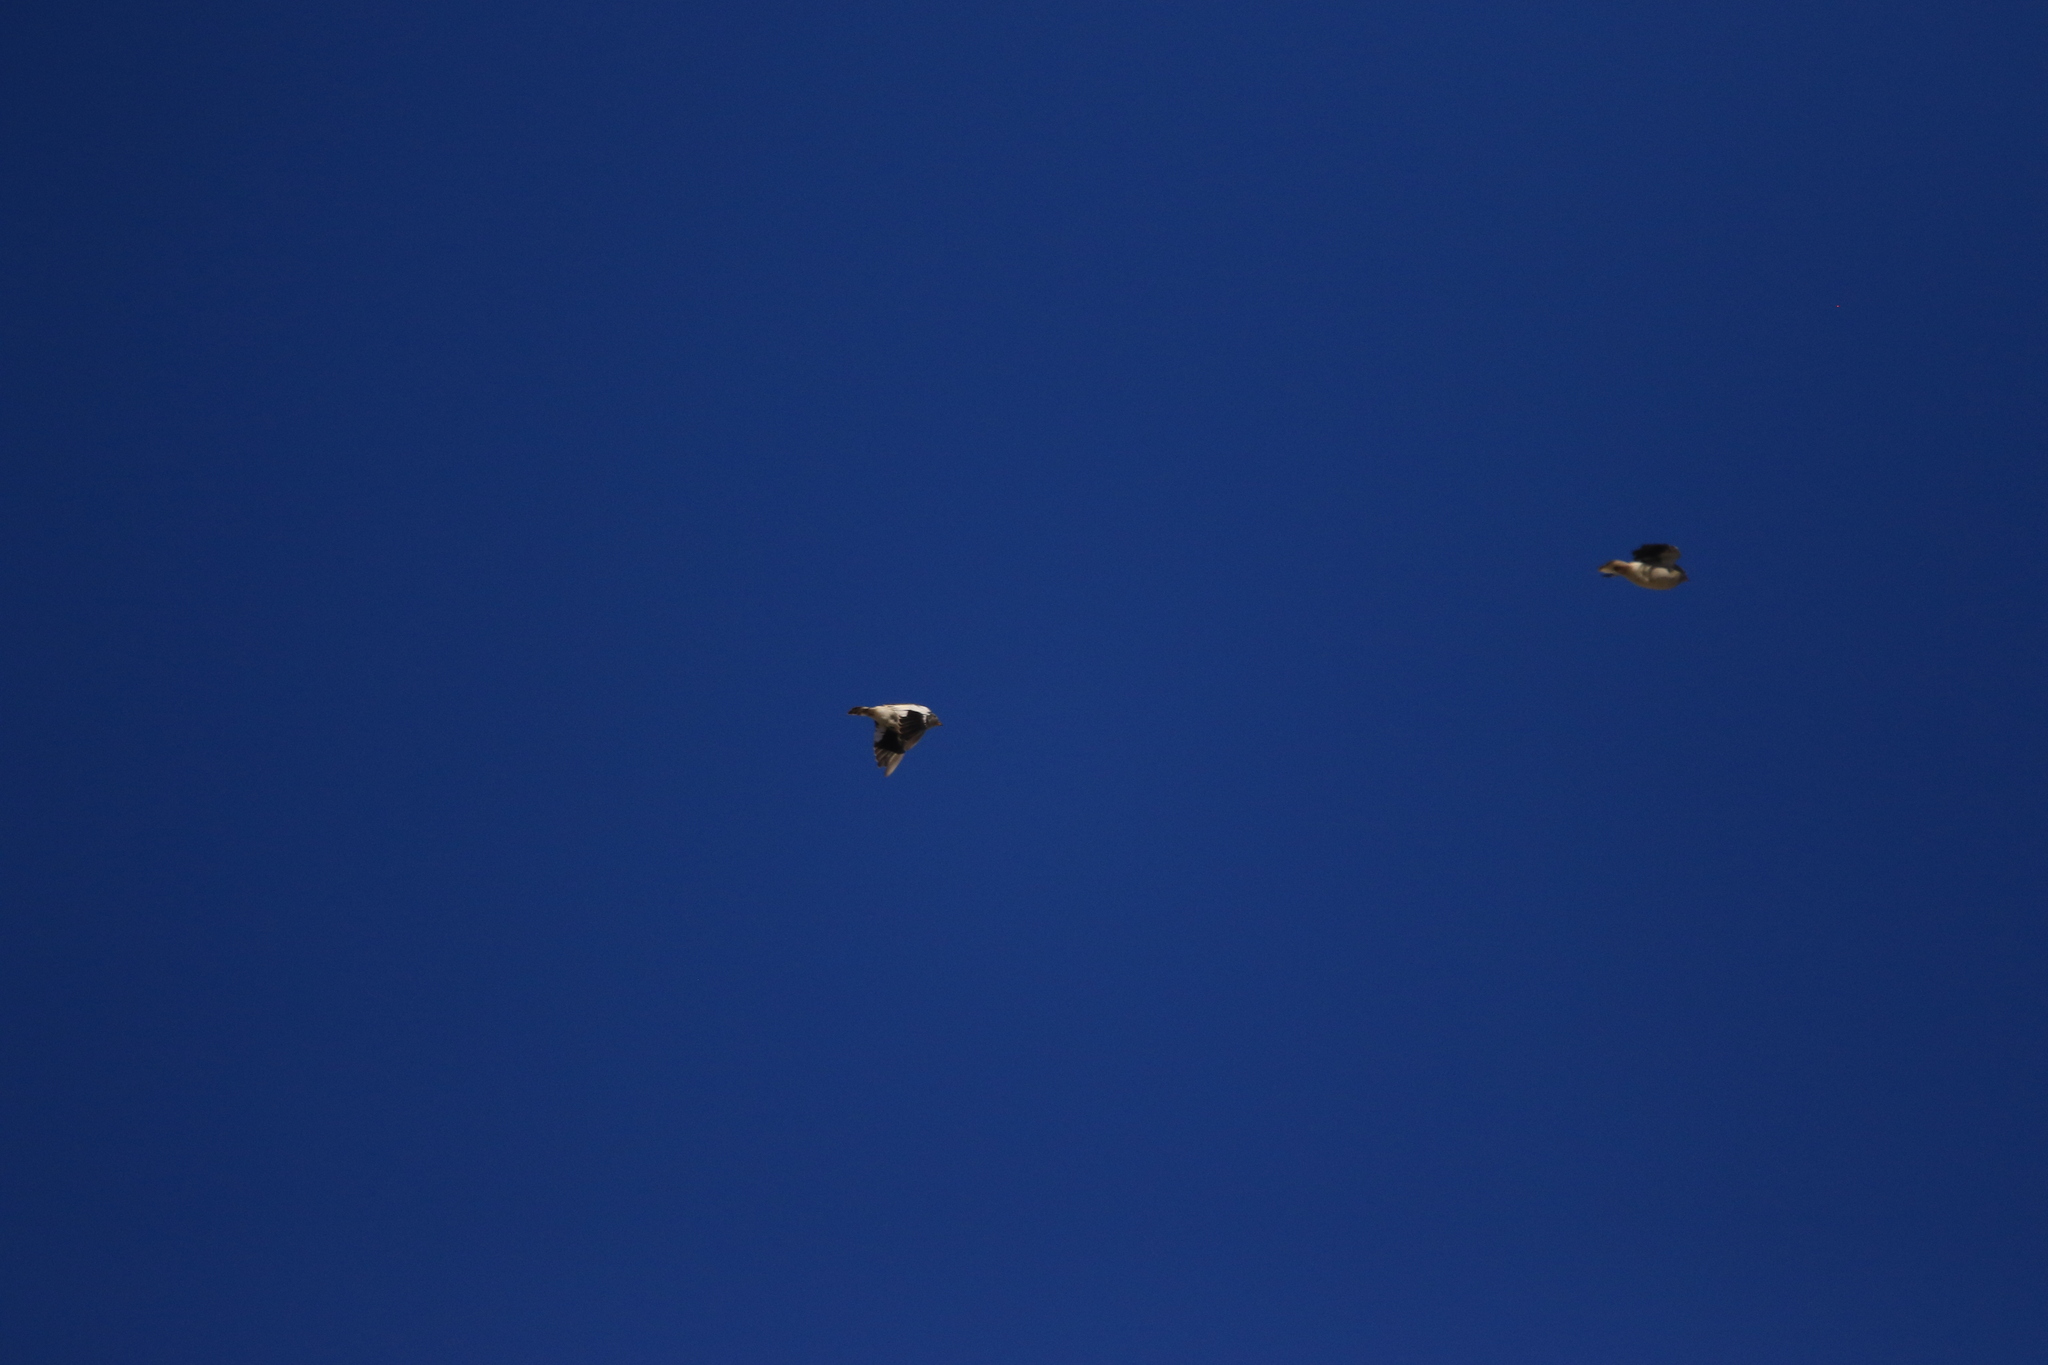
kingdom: Animalia
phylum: Chordata
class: Aves
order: Passeriformes
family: Passeridae
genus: Montifringilla
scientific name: Montifringilla nivalis
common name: White-winged snowfinch
